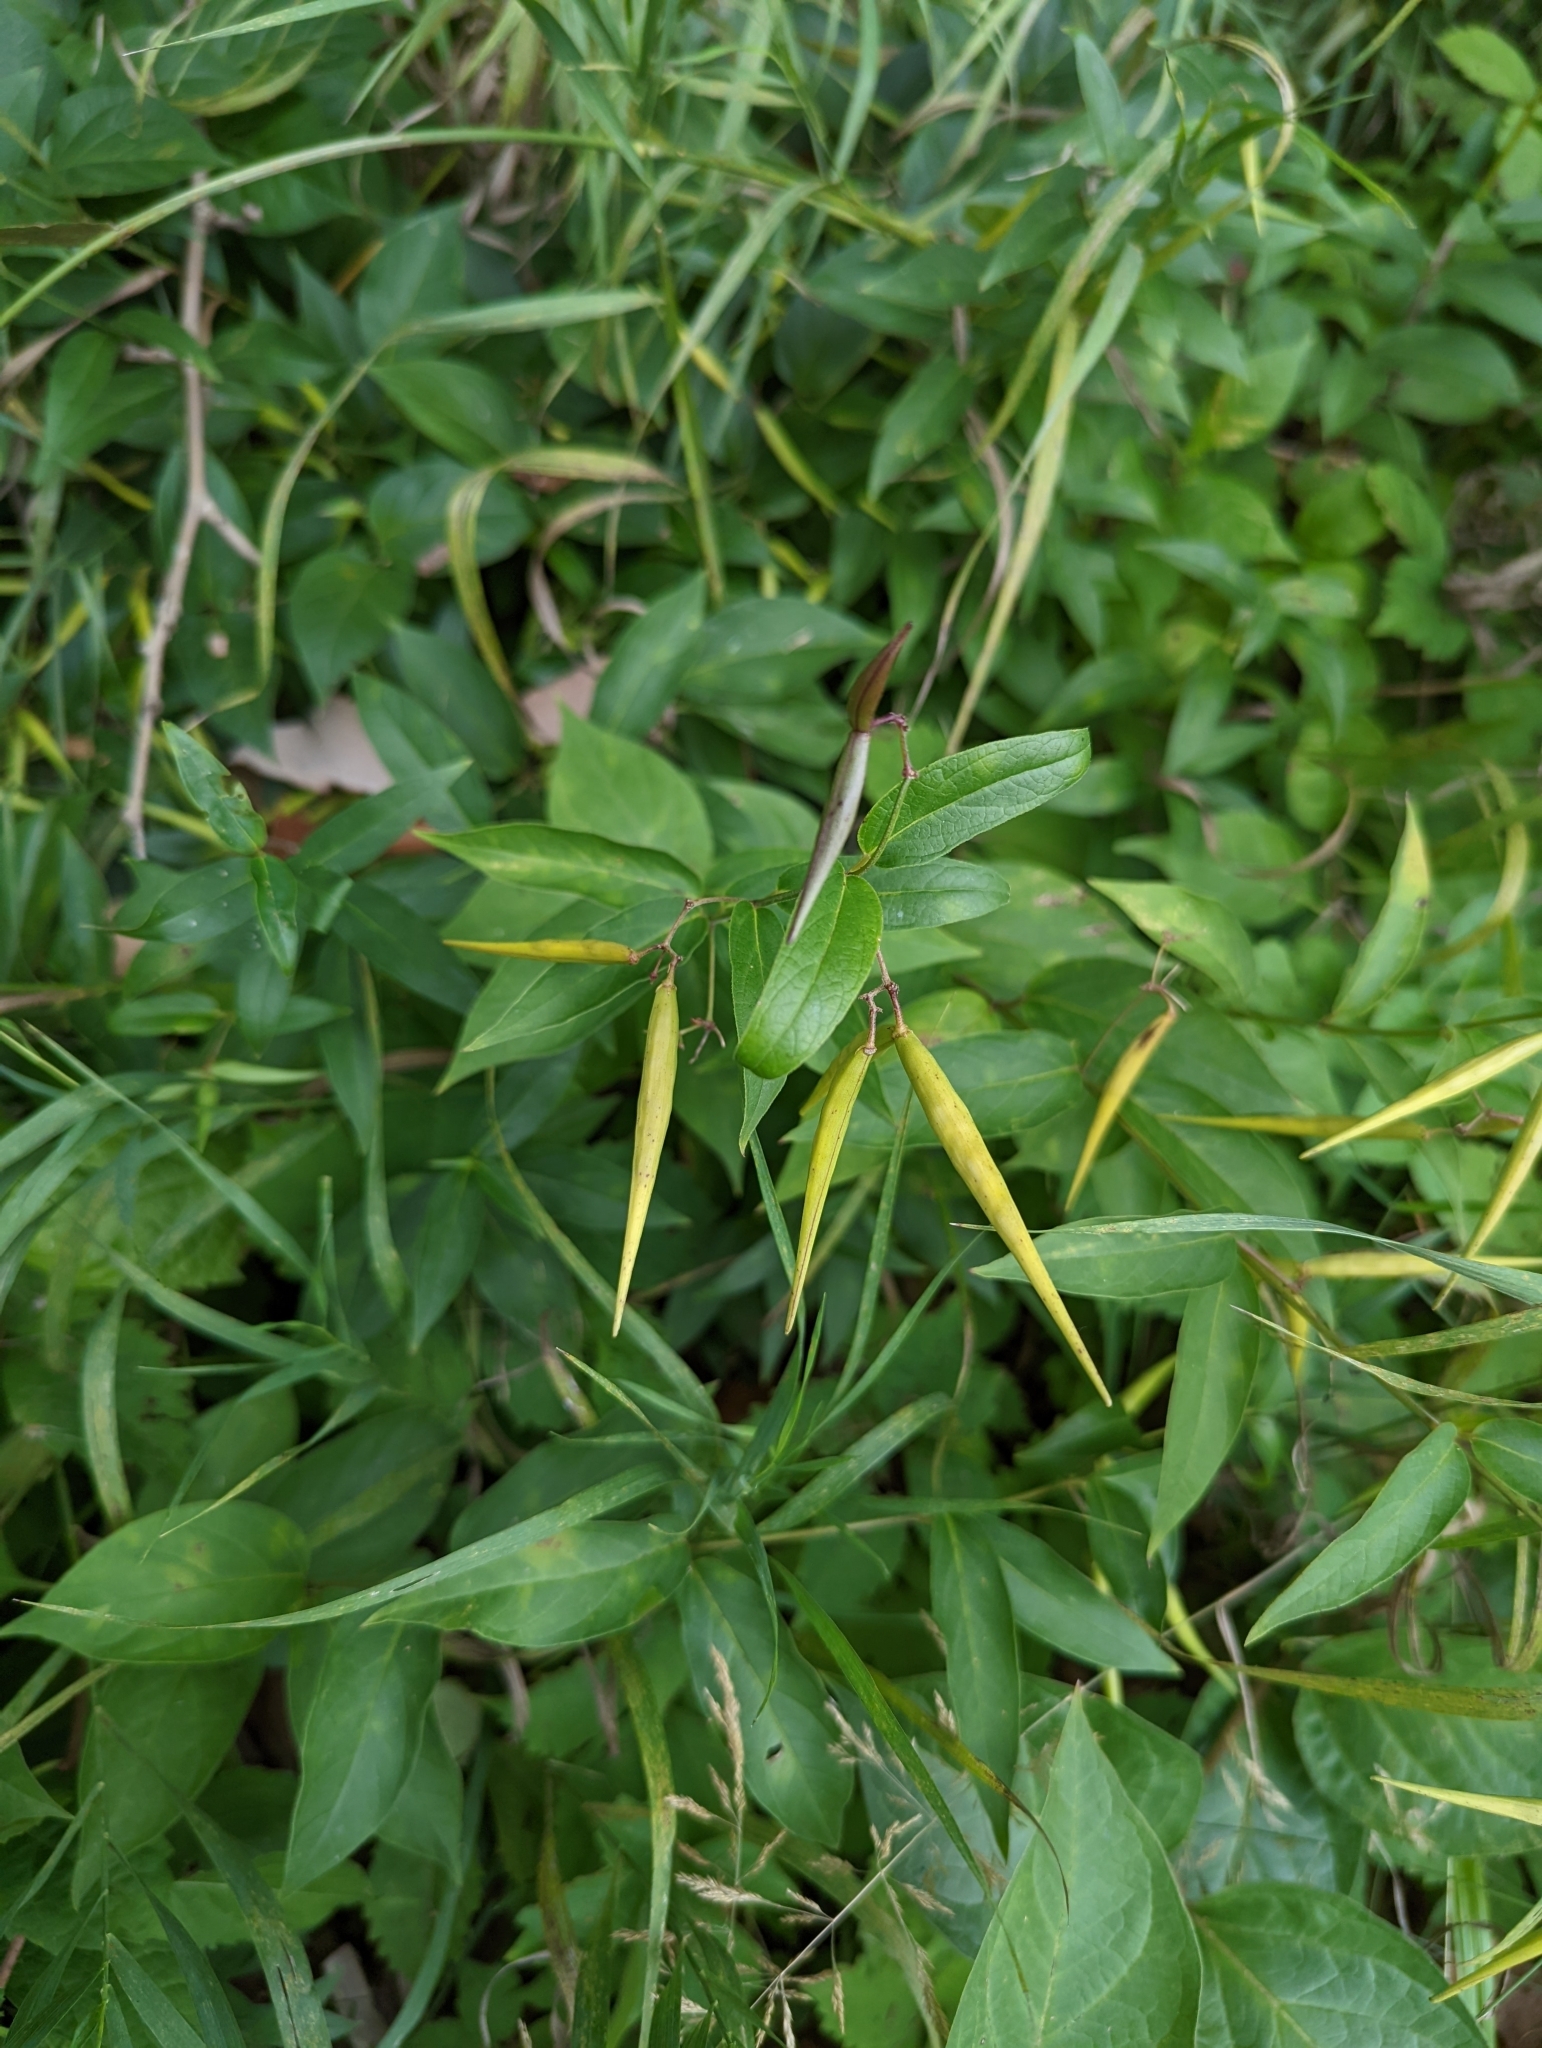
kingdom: Plantae
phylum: Tracheophyta
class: Magnoliopsida
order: Gentianales
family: Apocynaceae
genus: Vincetoxicum
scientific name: Vincetoxicum rossicum
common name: Dog-strangling vine
